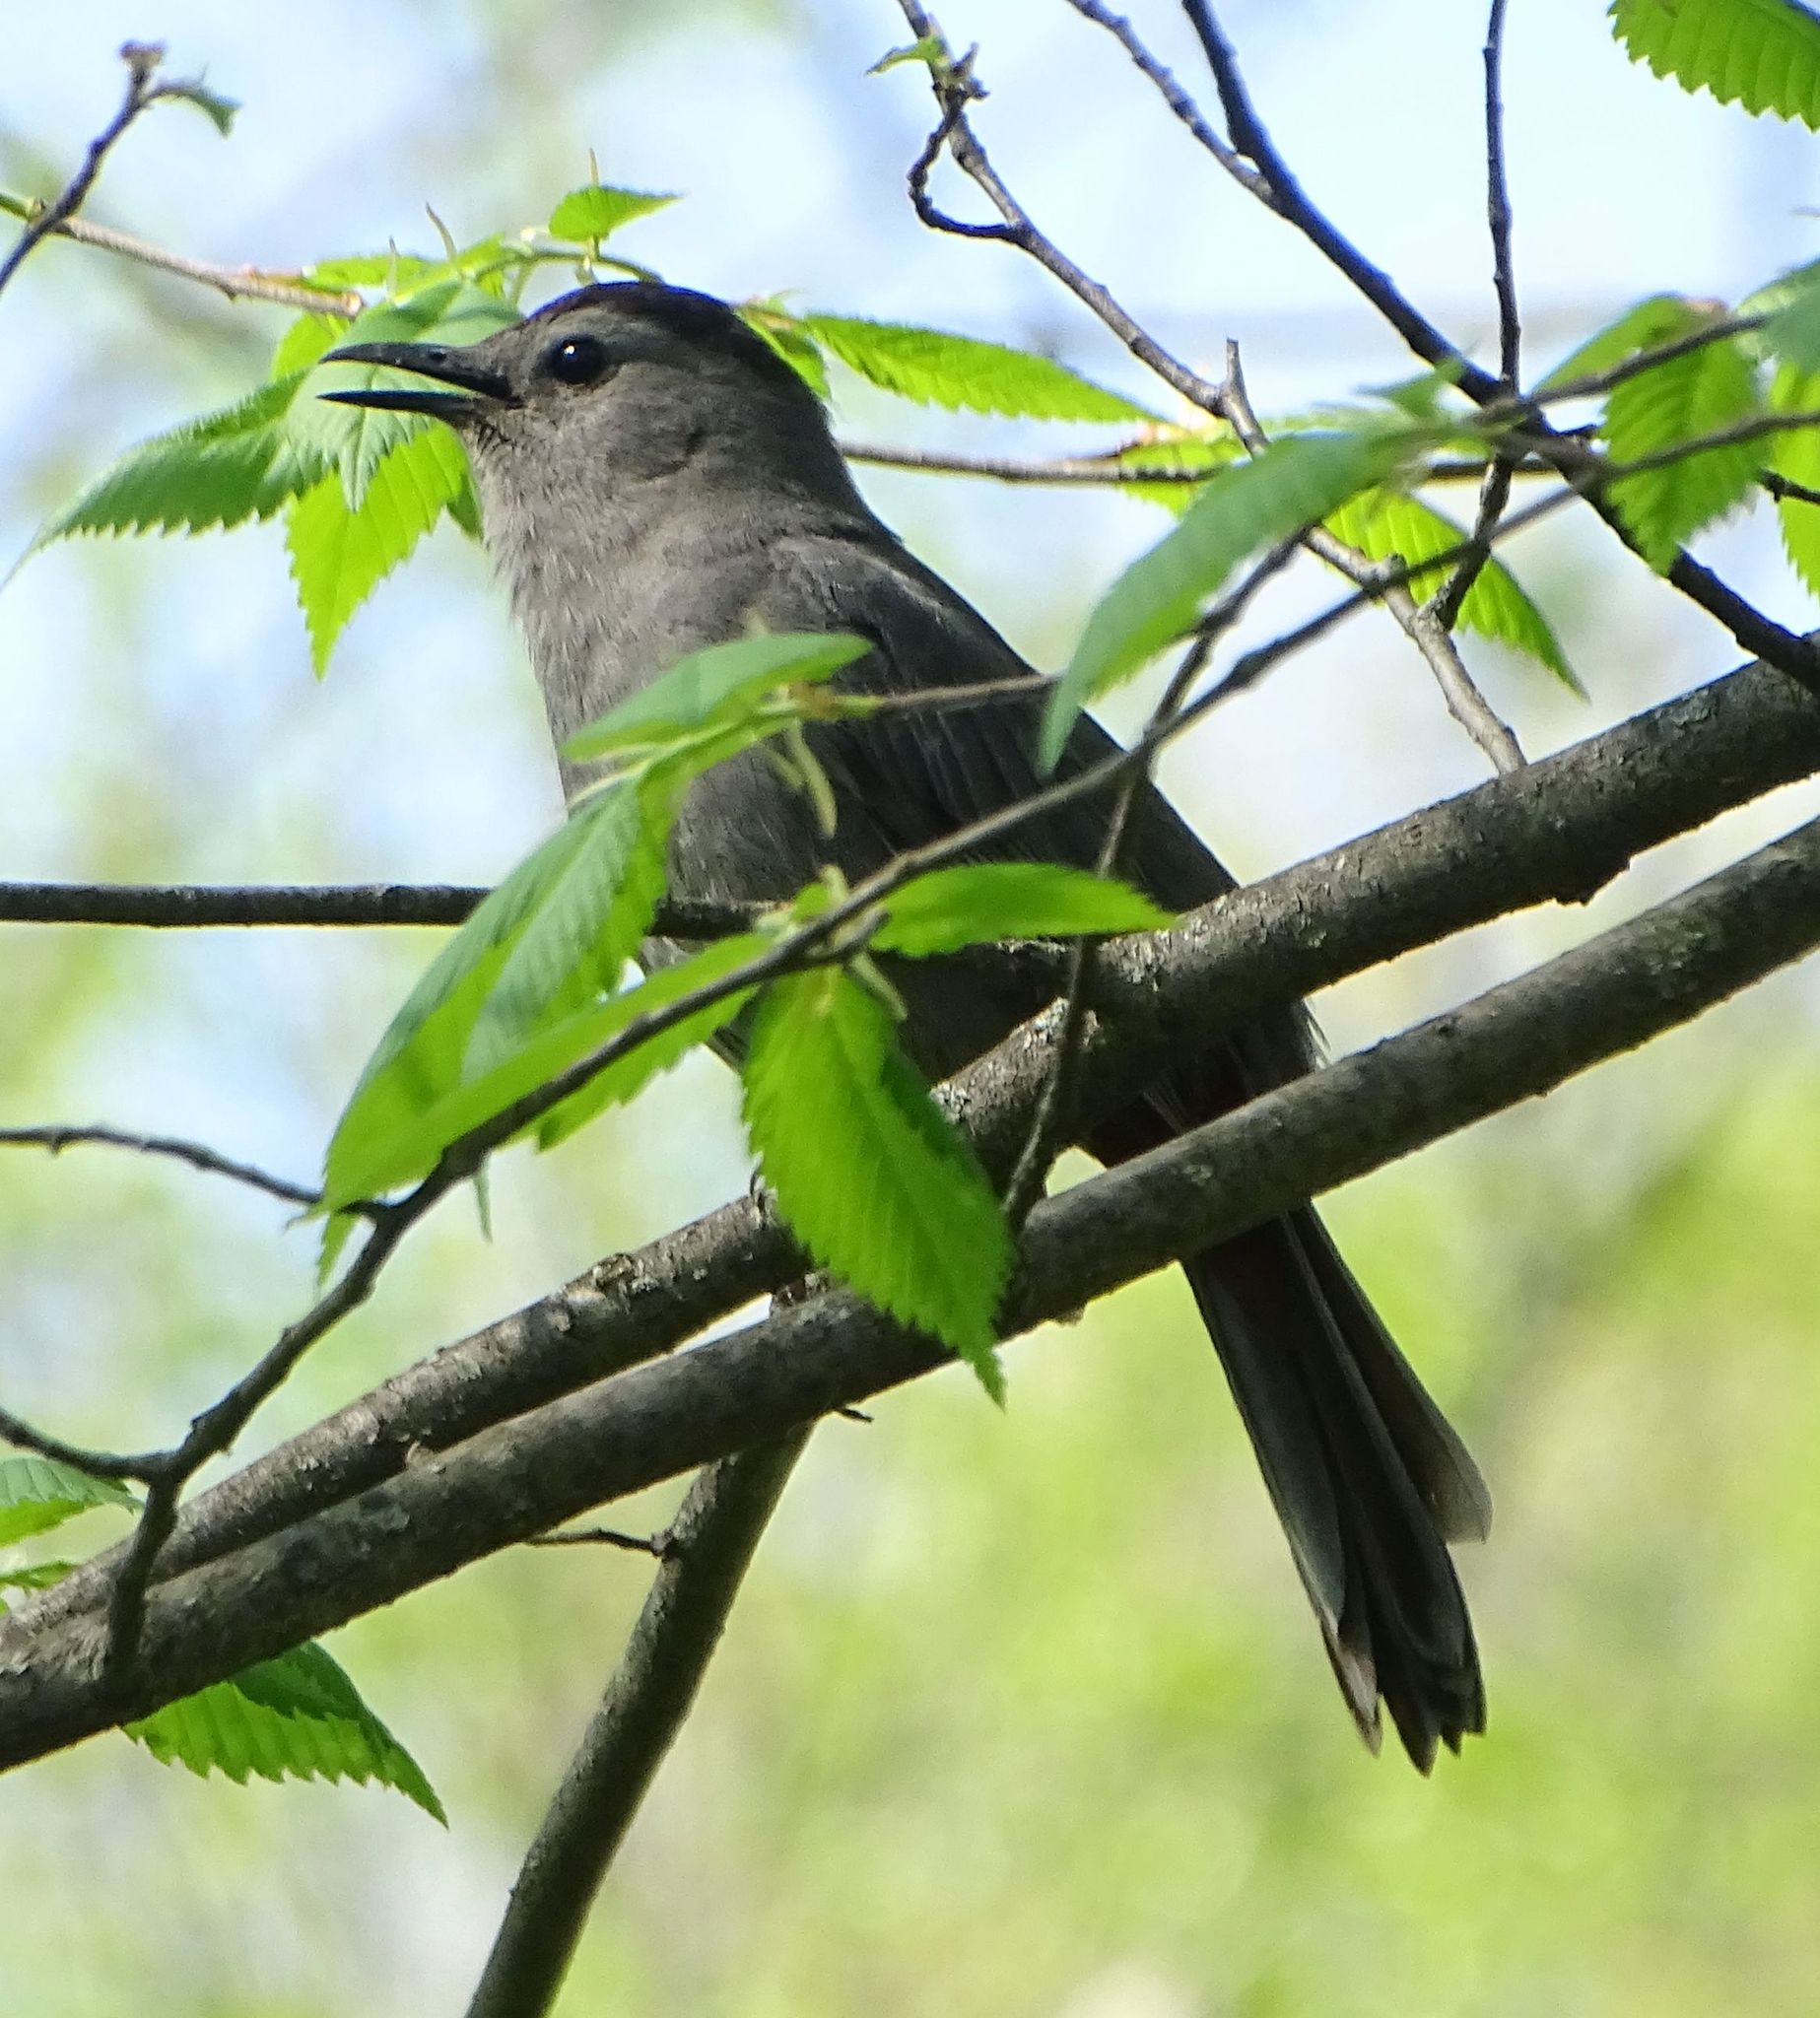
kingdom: Animalia
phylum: Chordata
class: Aves
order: Passeriformes
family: Mimidae
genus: Dumetella
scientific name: Dumetella carolinensis
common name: Gray catbird
